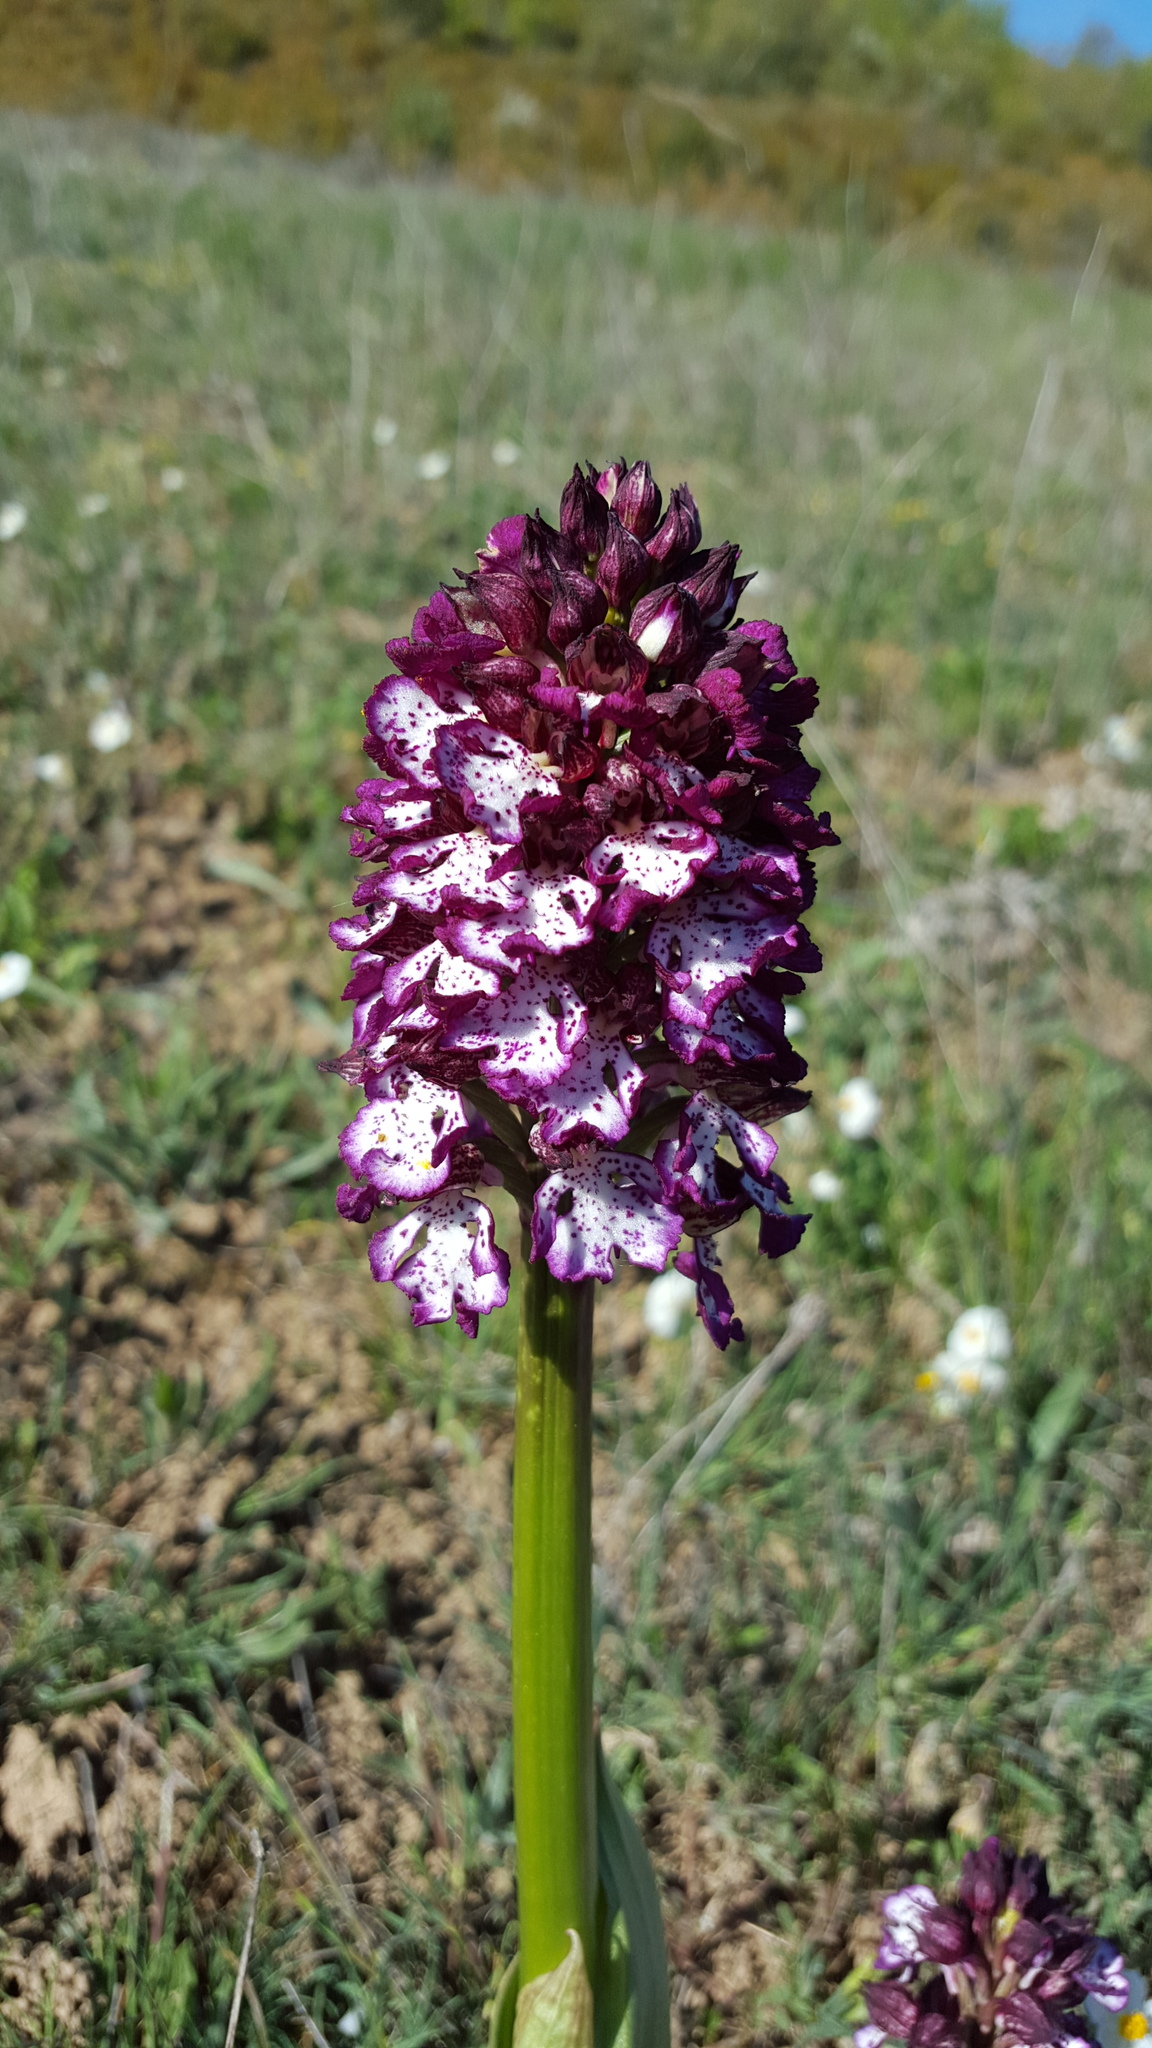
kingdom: Plantae
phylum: Tracheophyta
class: Liliopsida
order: Asparagales
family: Orchidaceae
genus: Orchis
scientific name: Orchis purpurea
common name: Lady orchid
